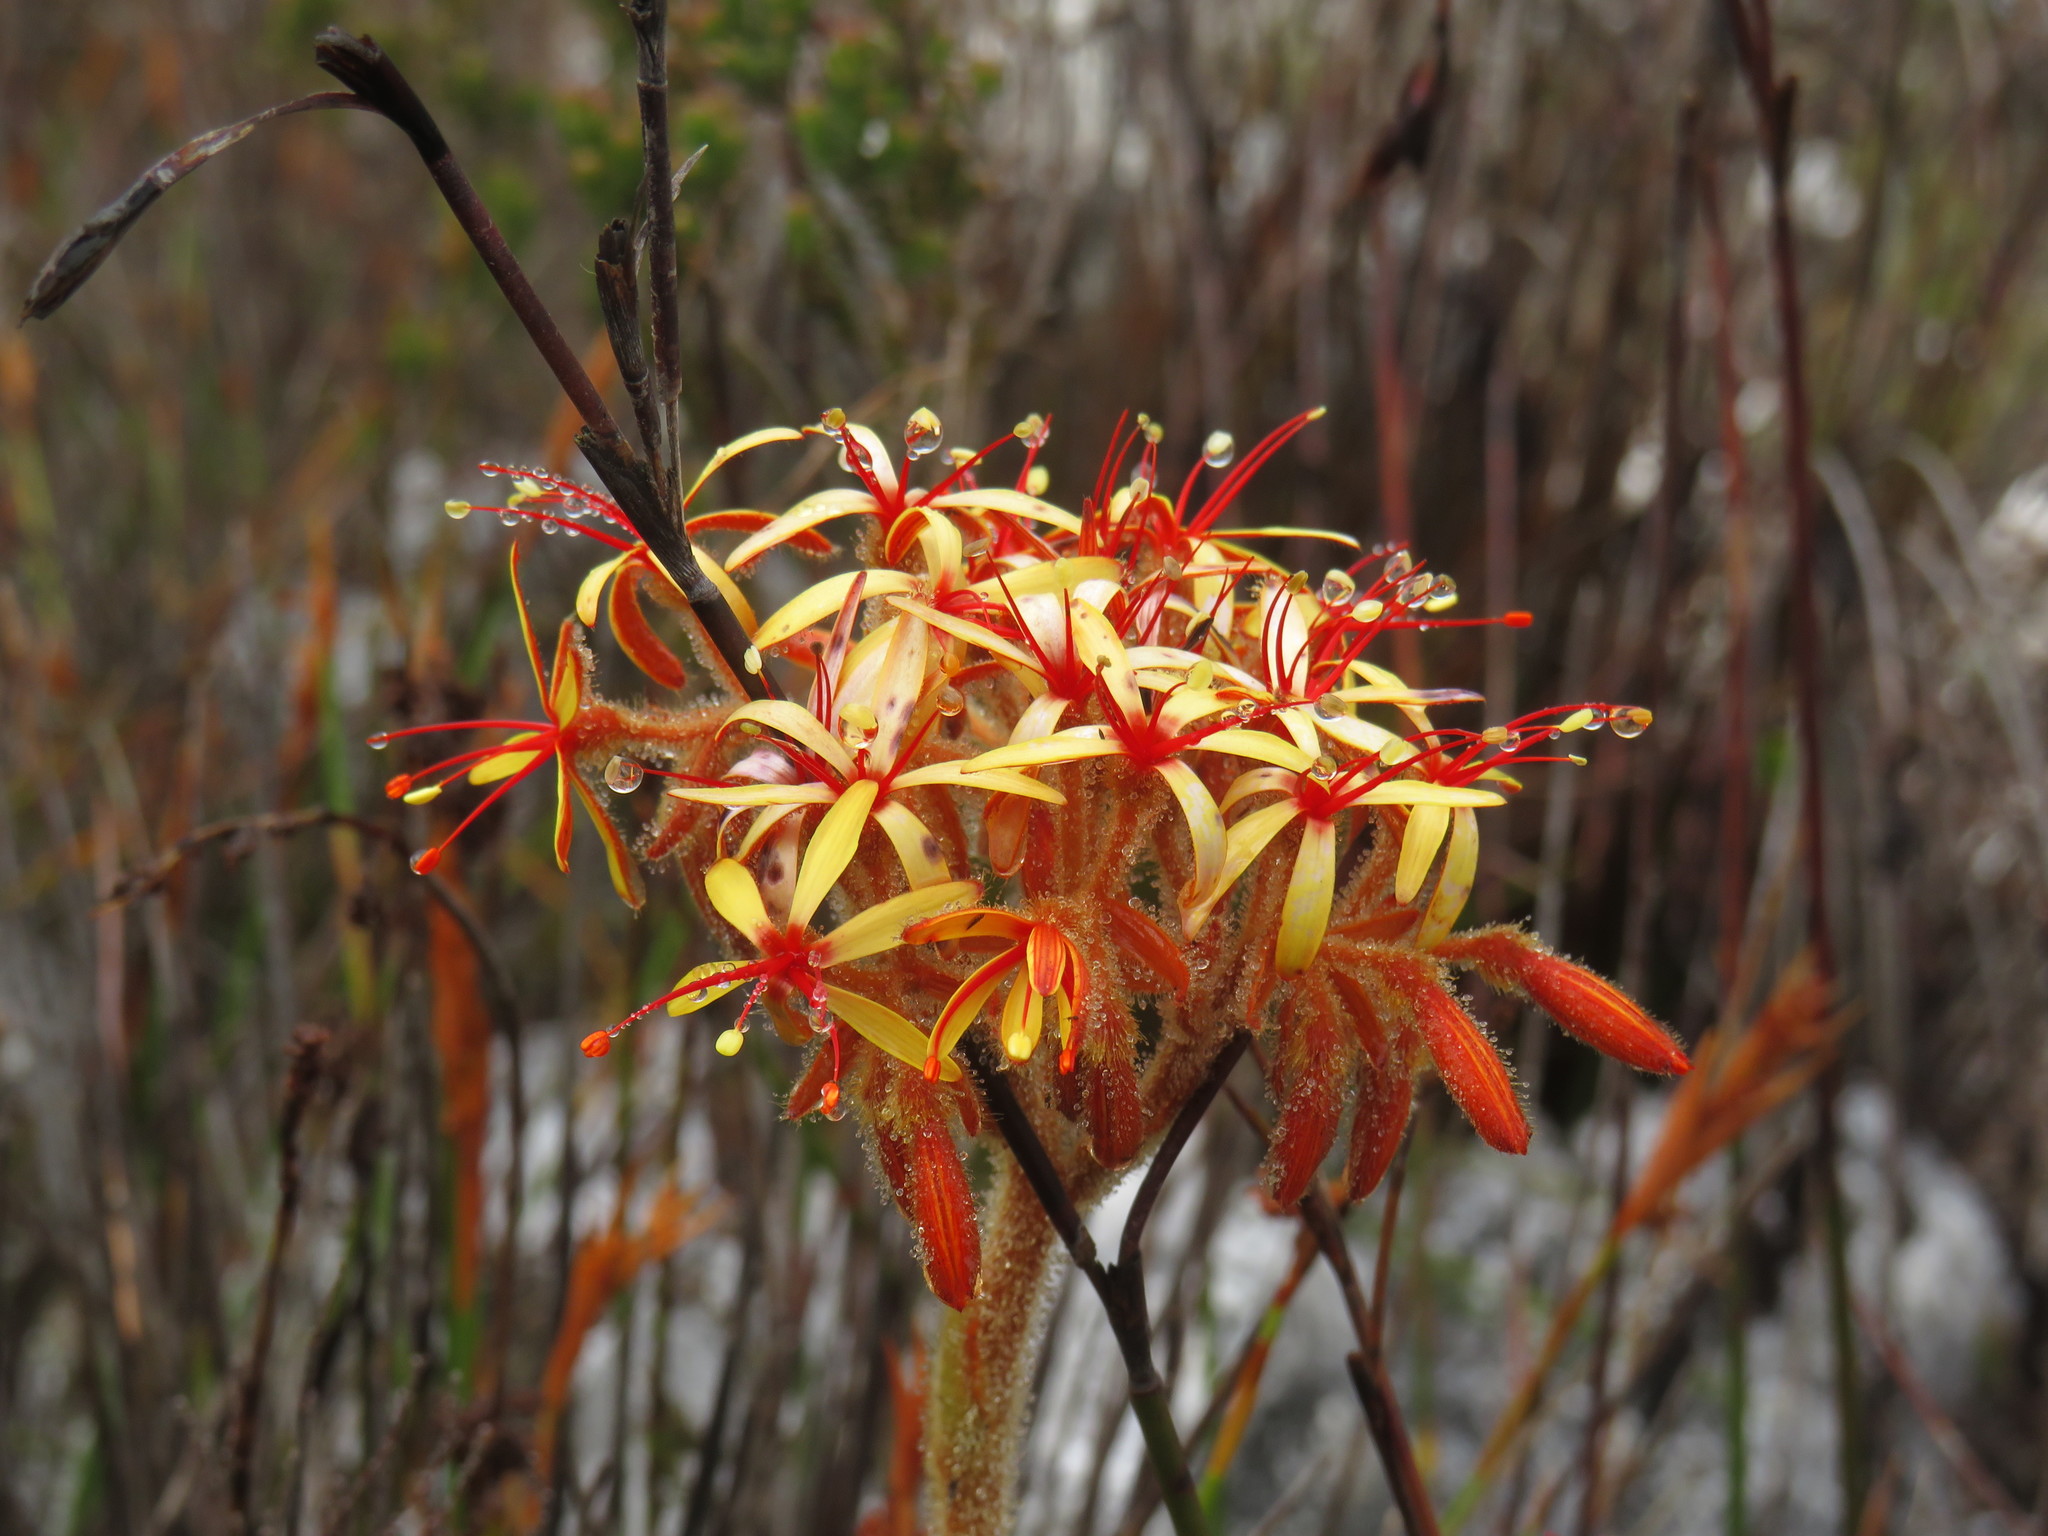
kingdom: Plantae
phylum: Tracheophyta
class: Liliopsida
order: Commelinales
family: Haemodoraceae
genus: Dilatris
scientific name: Dilatris viscosa
